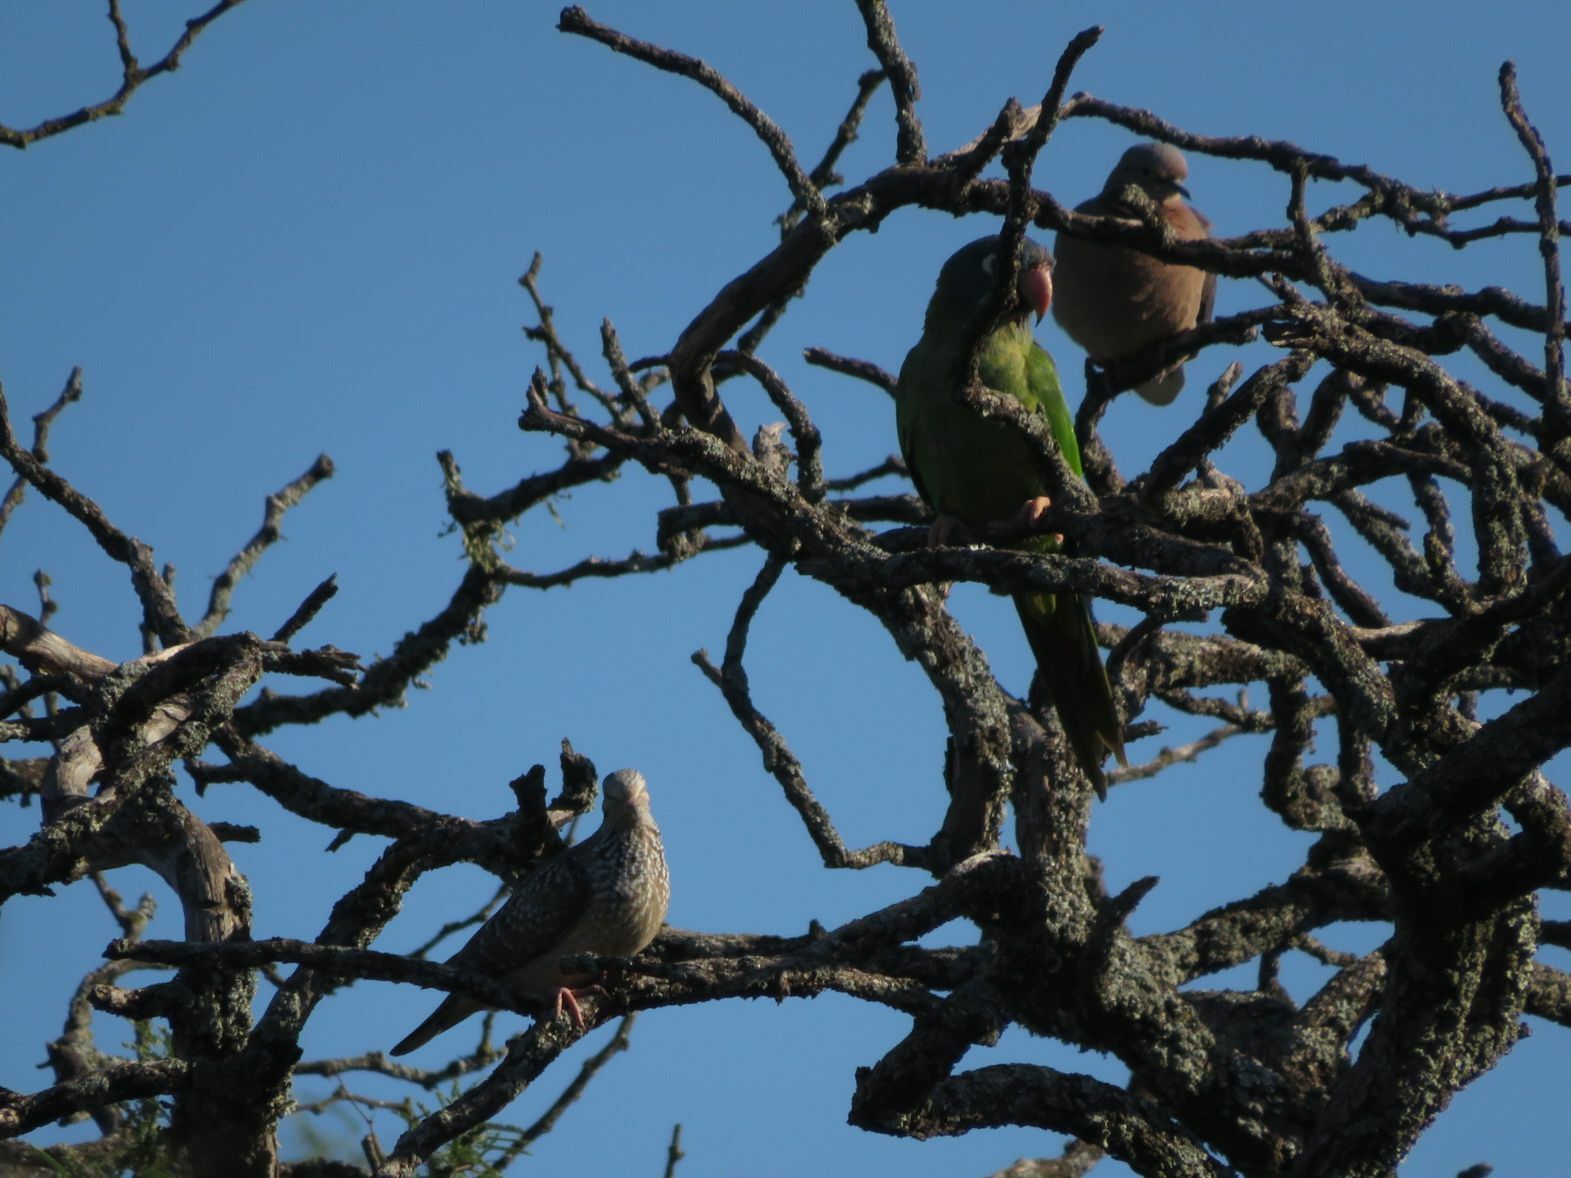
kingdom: Animalia
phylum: Chordata
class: Aves
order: Columbiformes
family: Columbidae
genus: Zenaida
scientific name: Zenaida auriculata
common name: Eared dove
